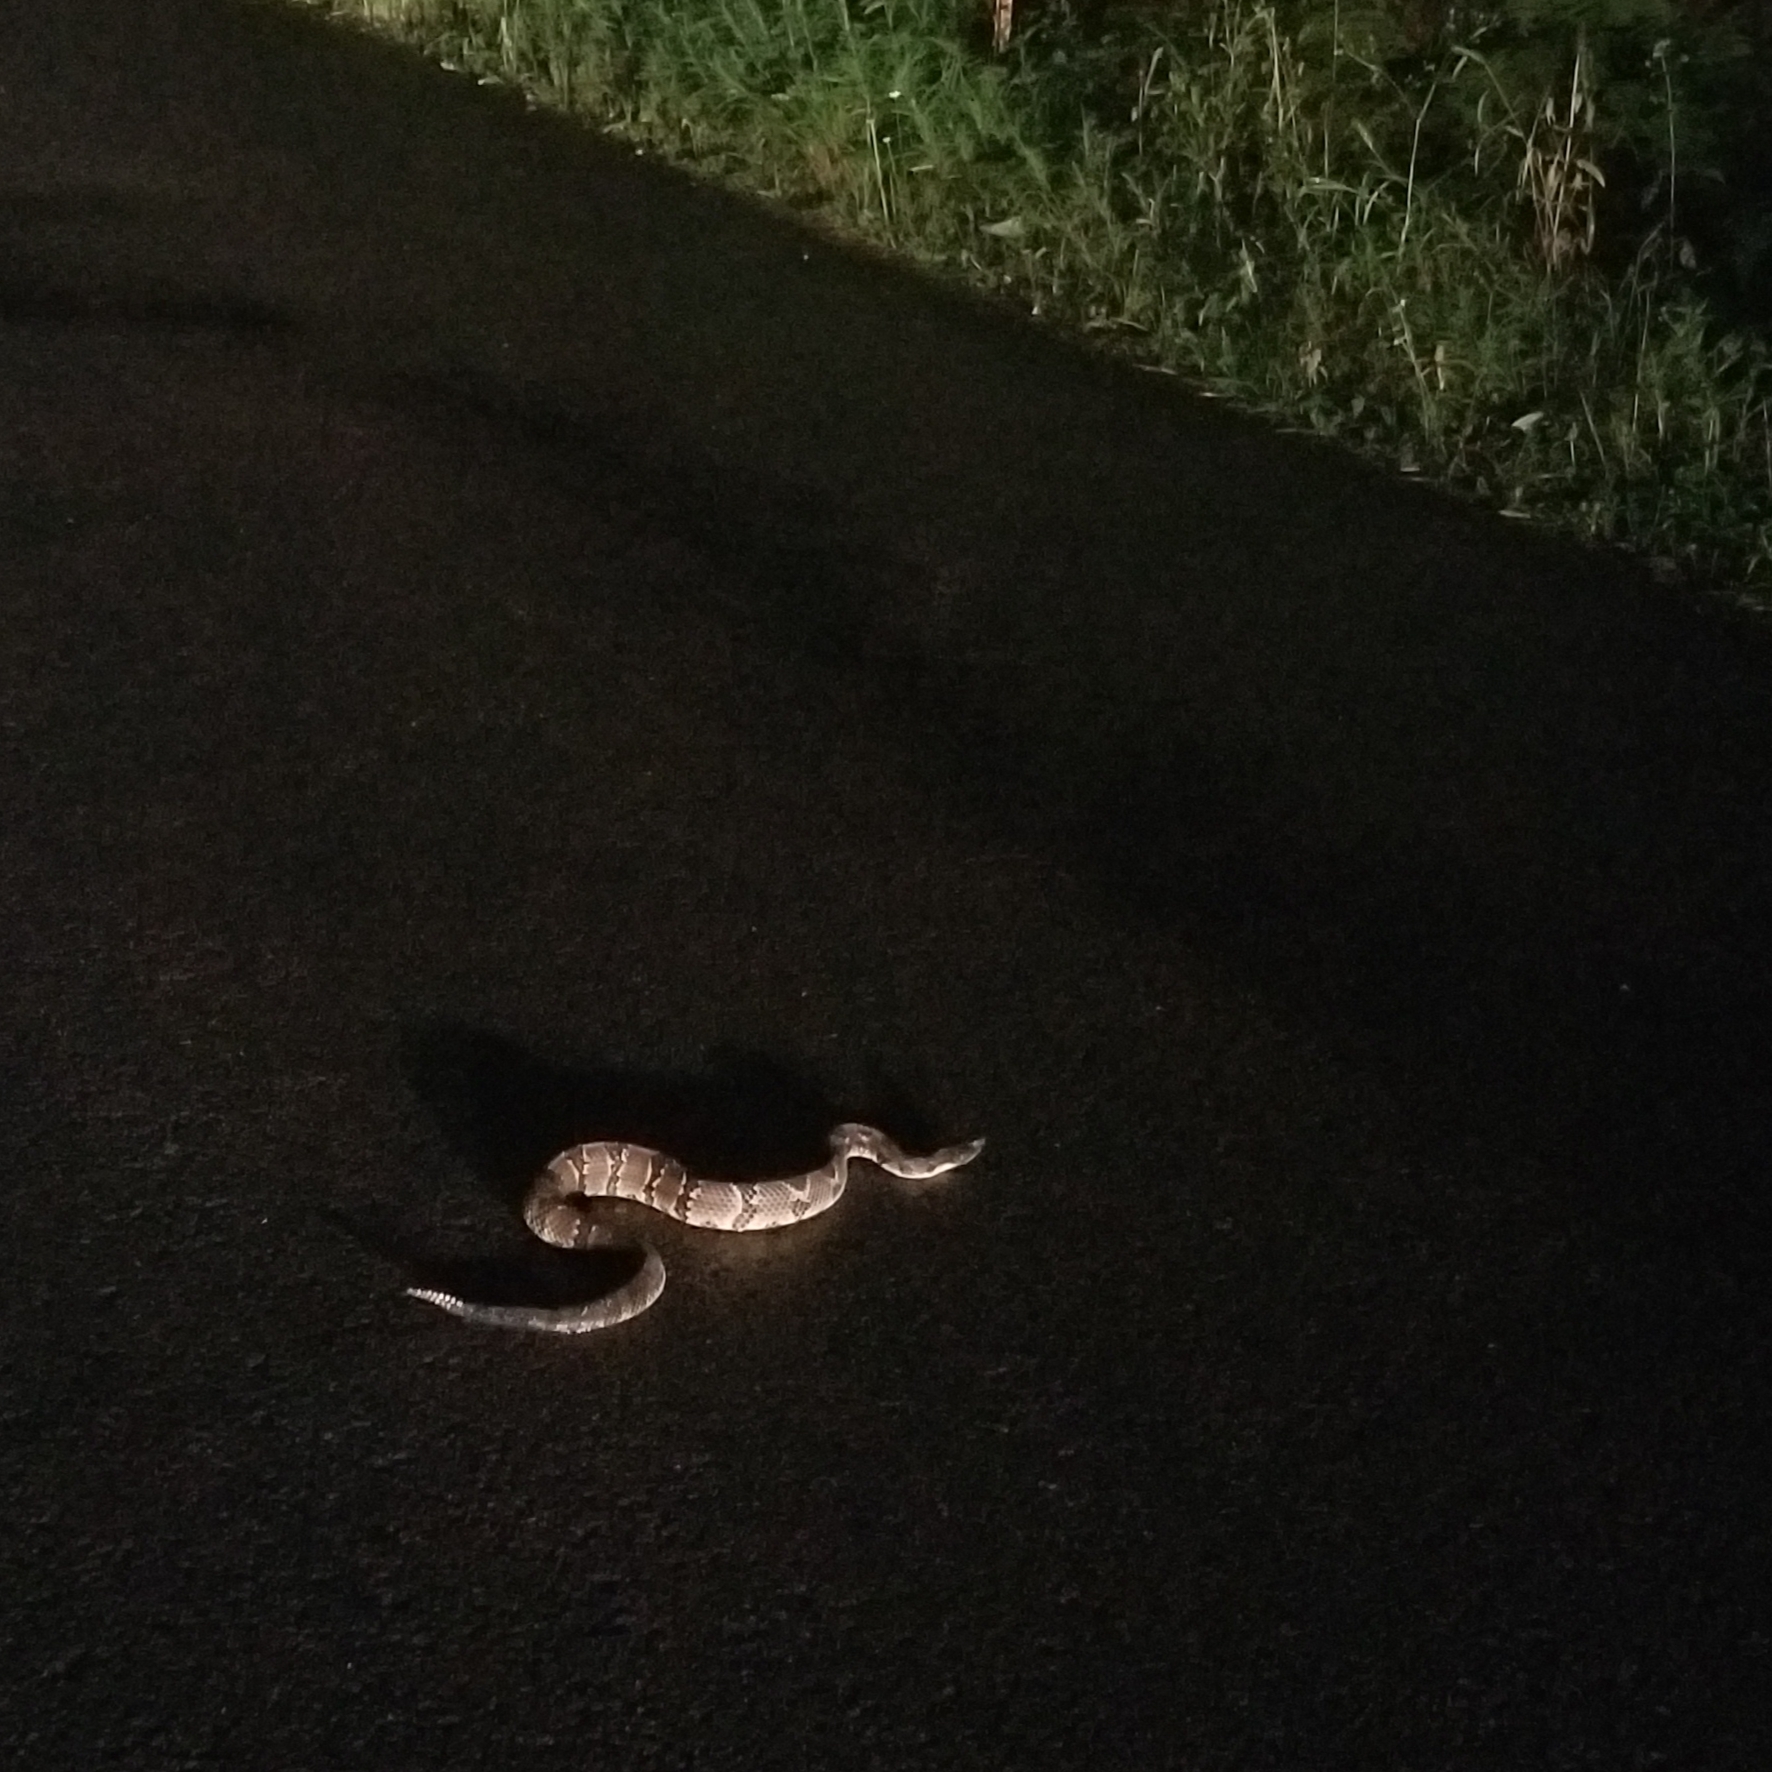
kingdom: Animalia
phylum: Chordata
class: Squamata
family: Viperidae
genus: Crotalus
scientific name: Crotalus horridus
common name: Timber rattlesnake
